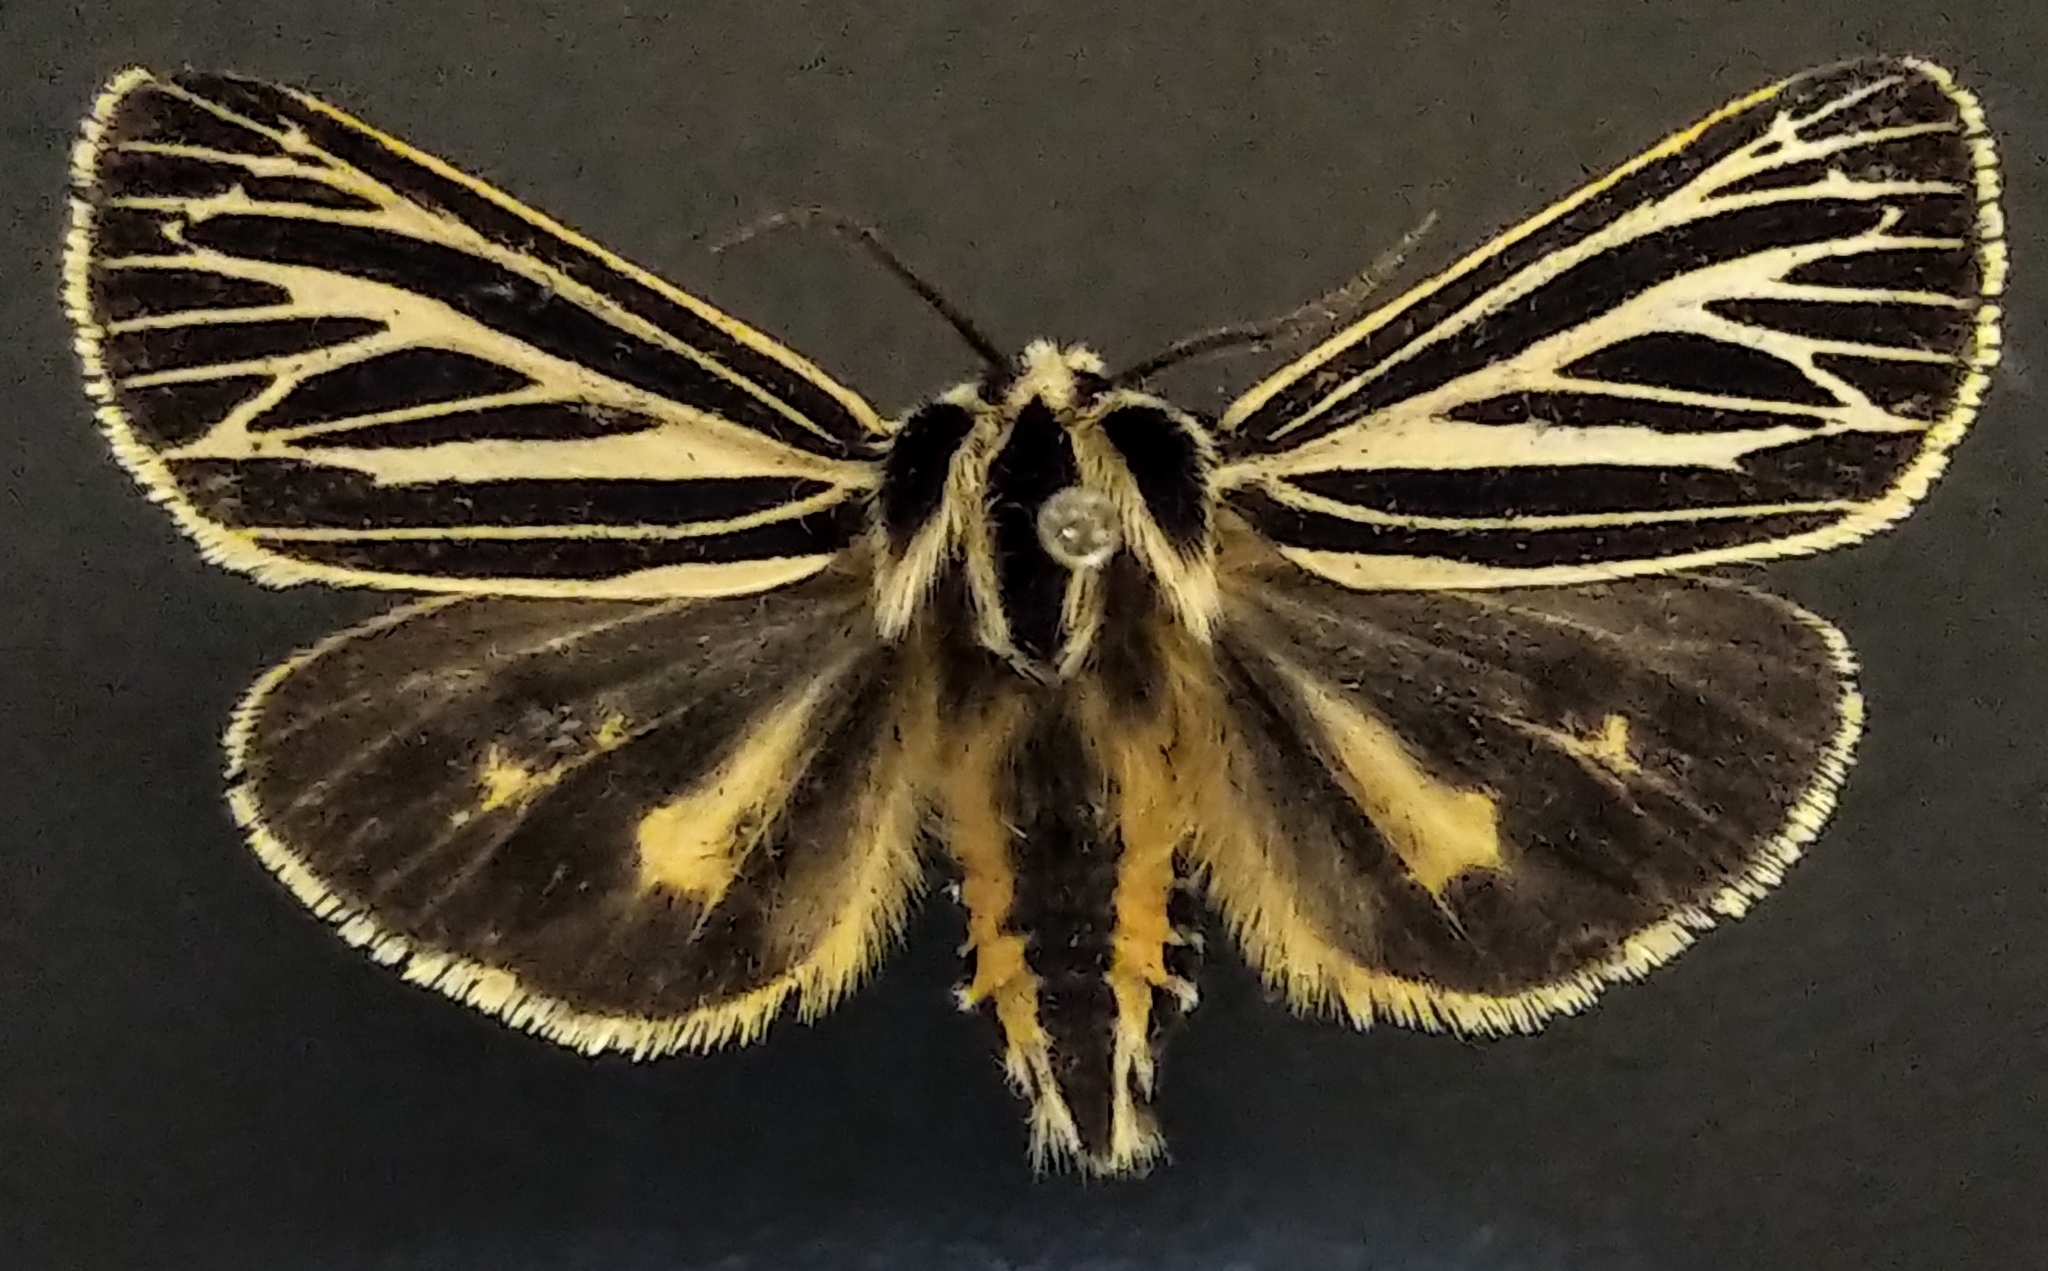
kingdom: Animalia
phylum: Arthropoda
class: Insecta
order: Lepidoptera
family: Erebidae
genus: Grammia
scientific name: Grammia virguncula
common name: Little tiger moth
